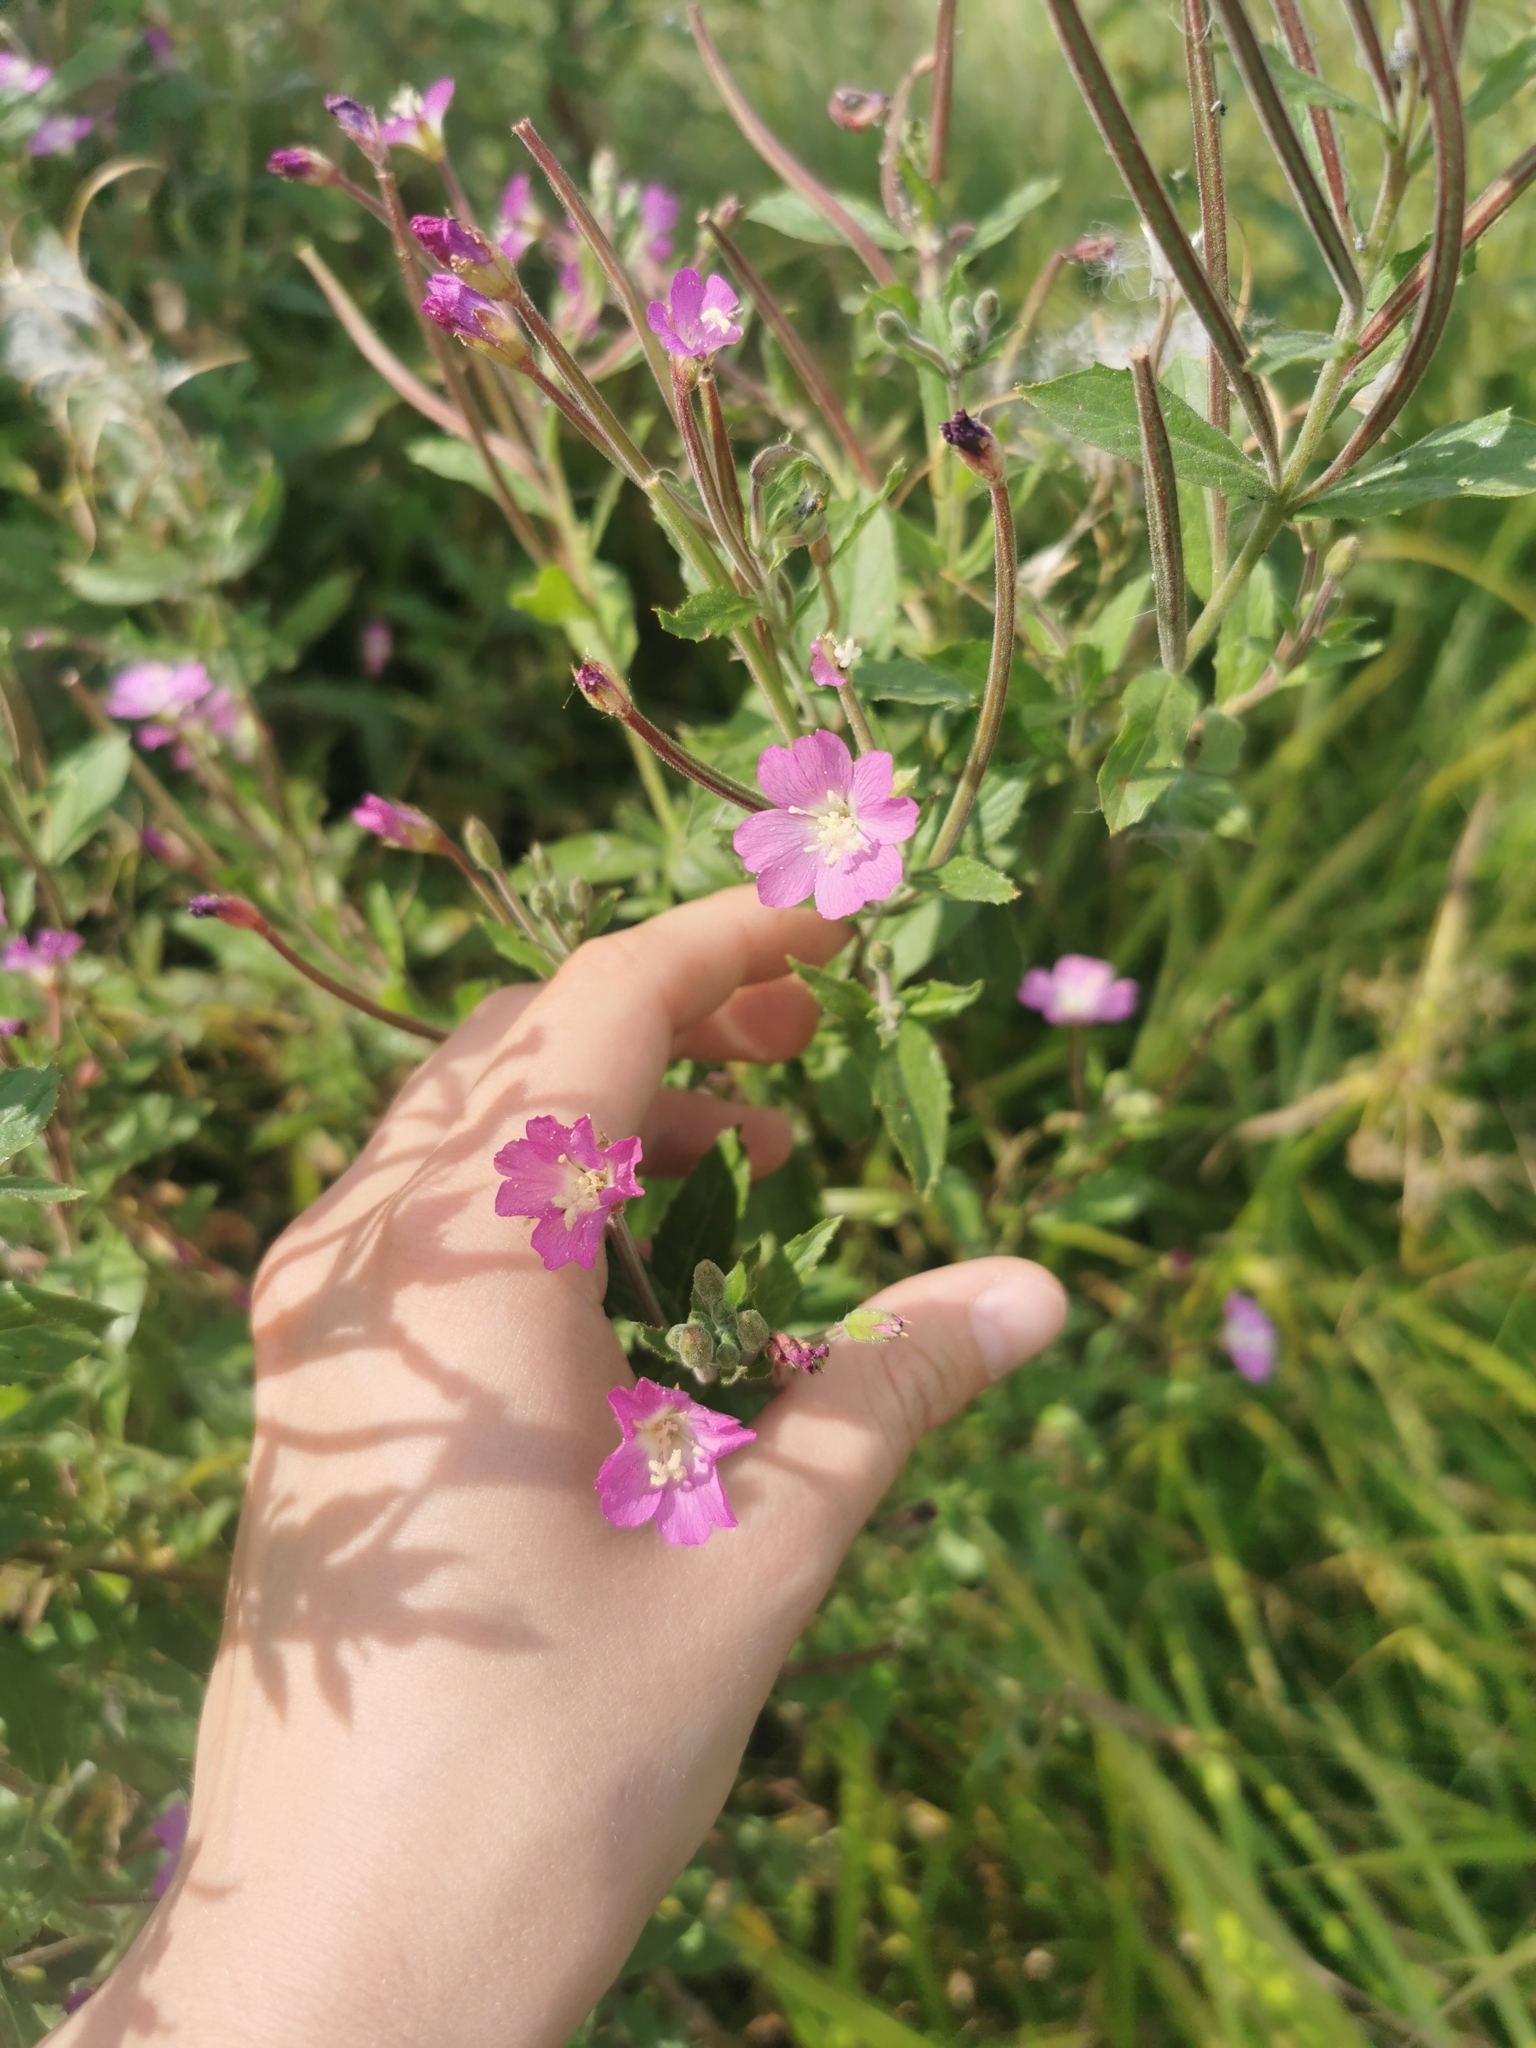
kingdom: Plantae
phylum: Tracheophyta
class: Magnoliopsida
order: Myrtales
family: Onagraceae
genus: Epilobium
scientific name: Epilobium hirsutum
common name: Great willowherb
